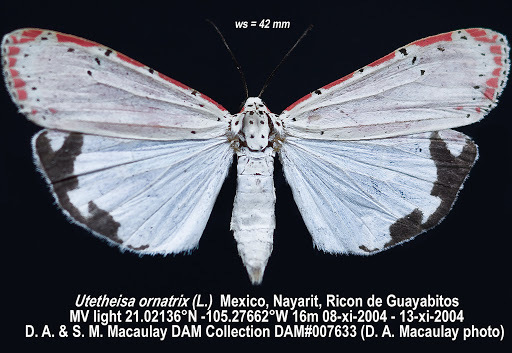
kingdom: Animalia
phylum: Arthropoda
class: Insecta
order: Lepidoptera
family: Erebidae
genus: Utetheisa
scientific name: Utetheisa ornatrix
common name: Beautiful utetheisa
